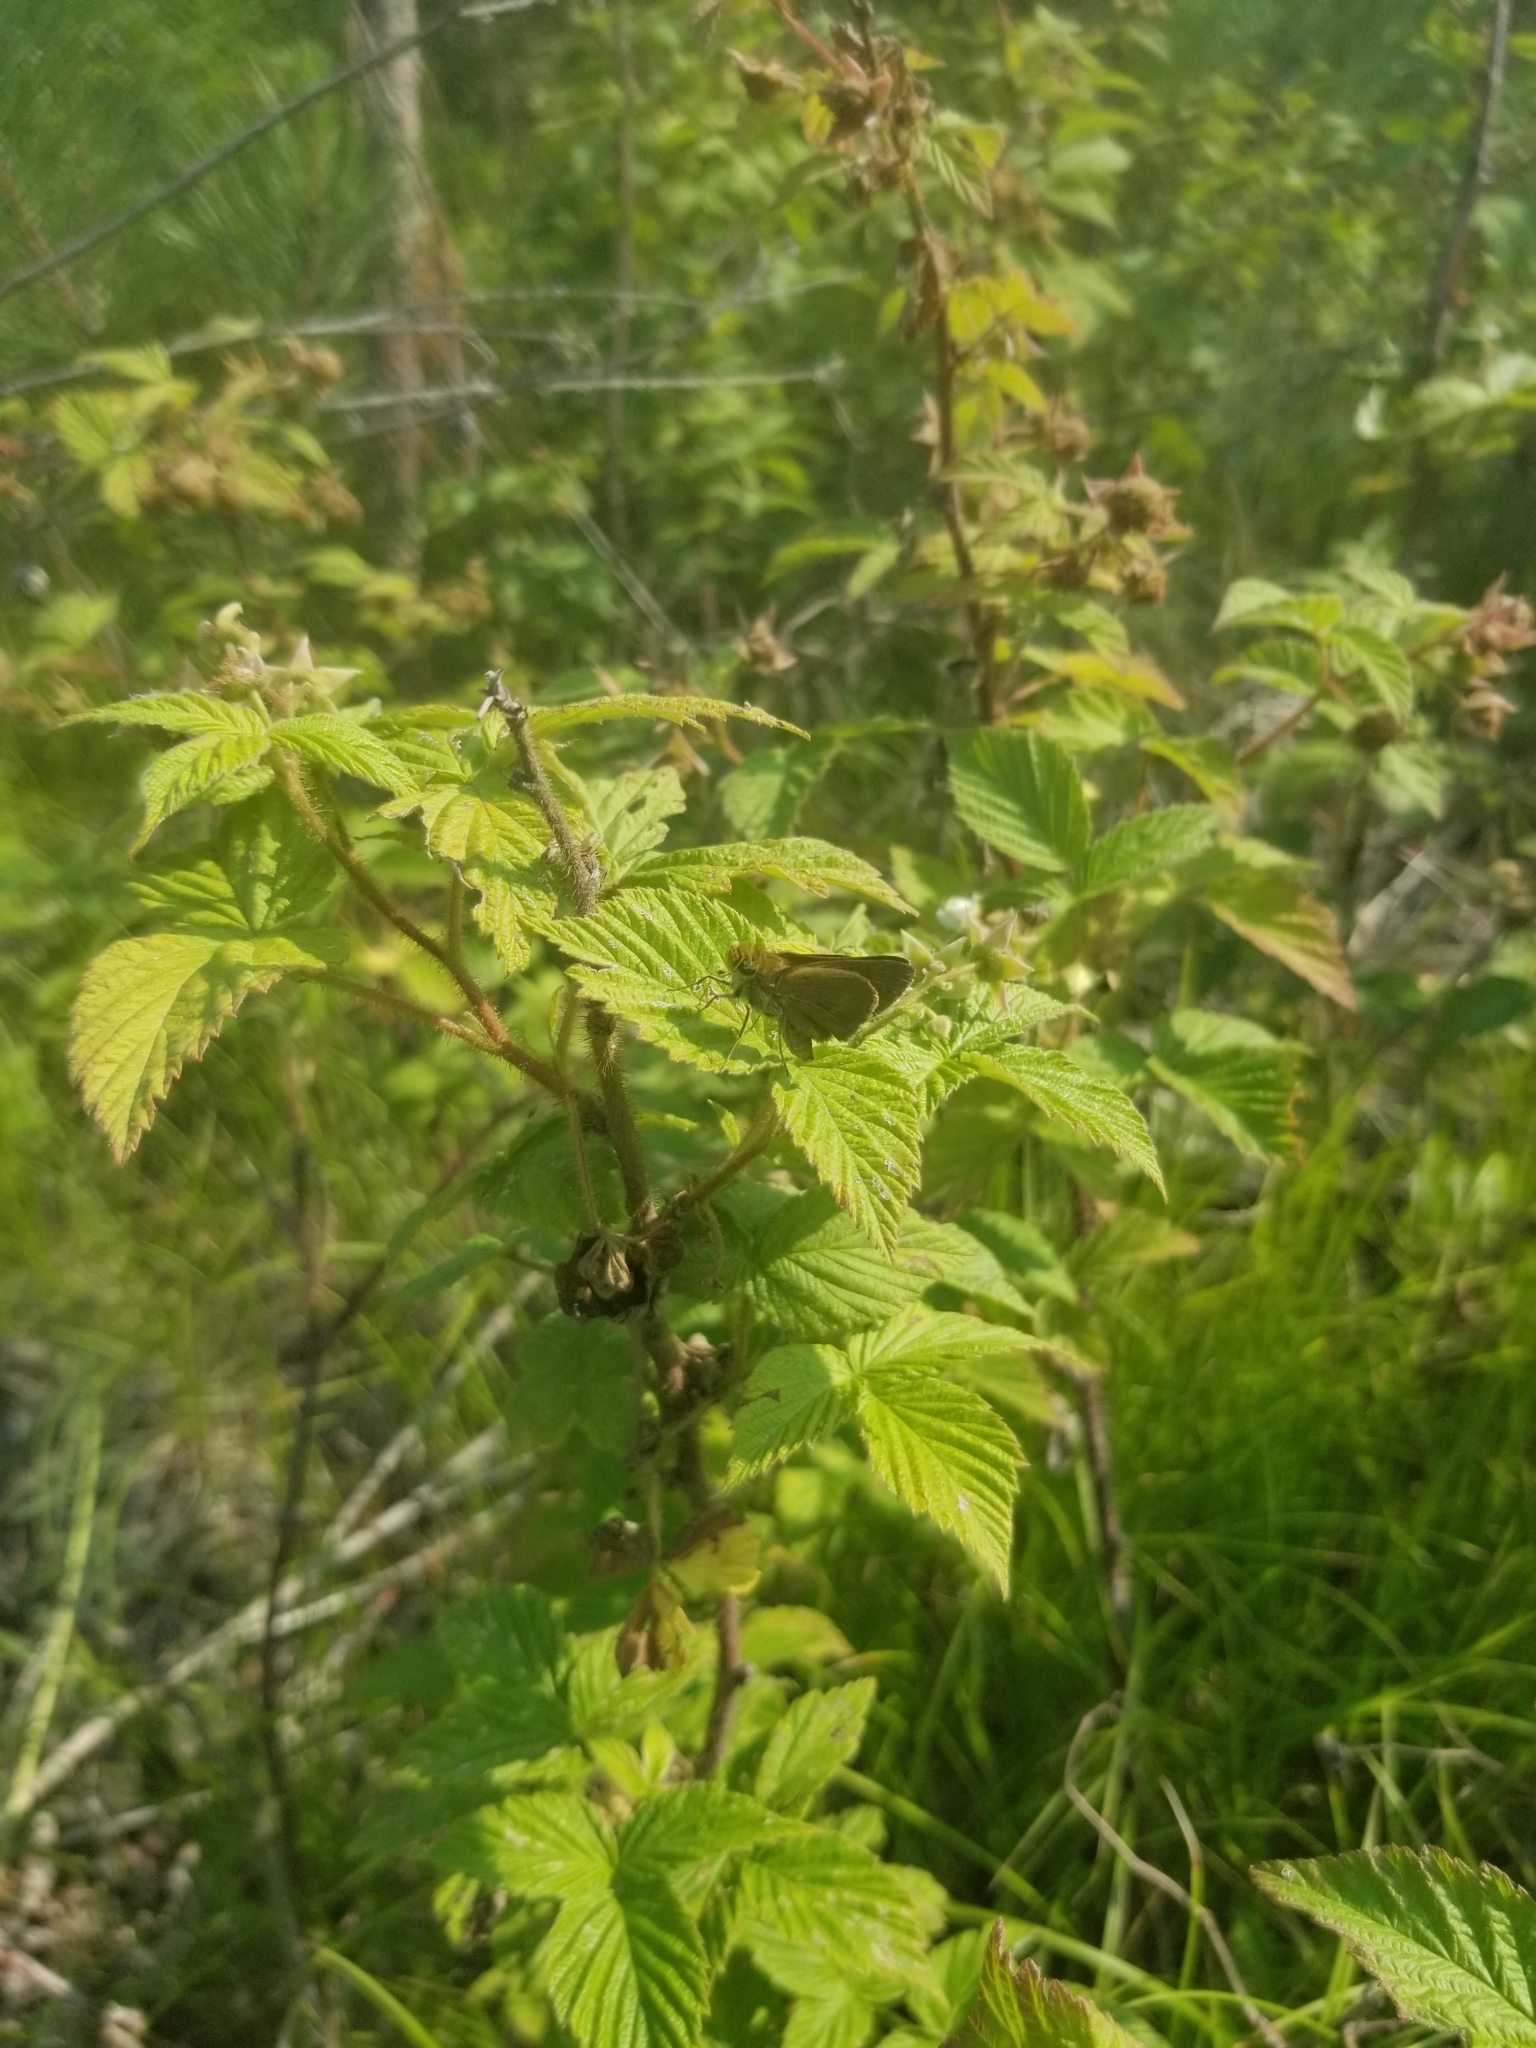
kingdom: Animalia
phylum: Arthropoda
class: Insecta
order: Lepidoptera
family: Hesperiidae
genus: Euphyes
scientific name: Euphyes vestris
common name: Dun skipper
